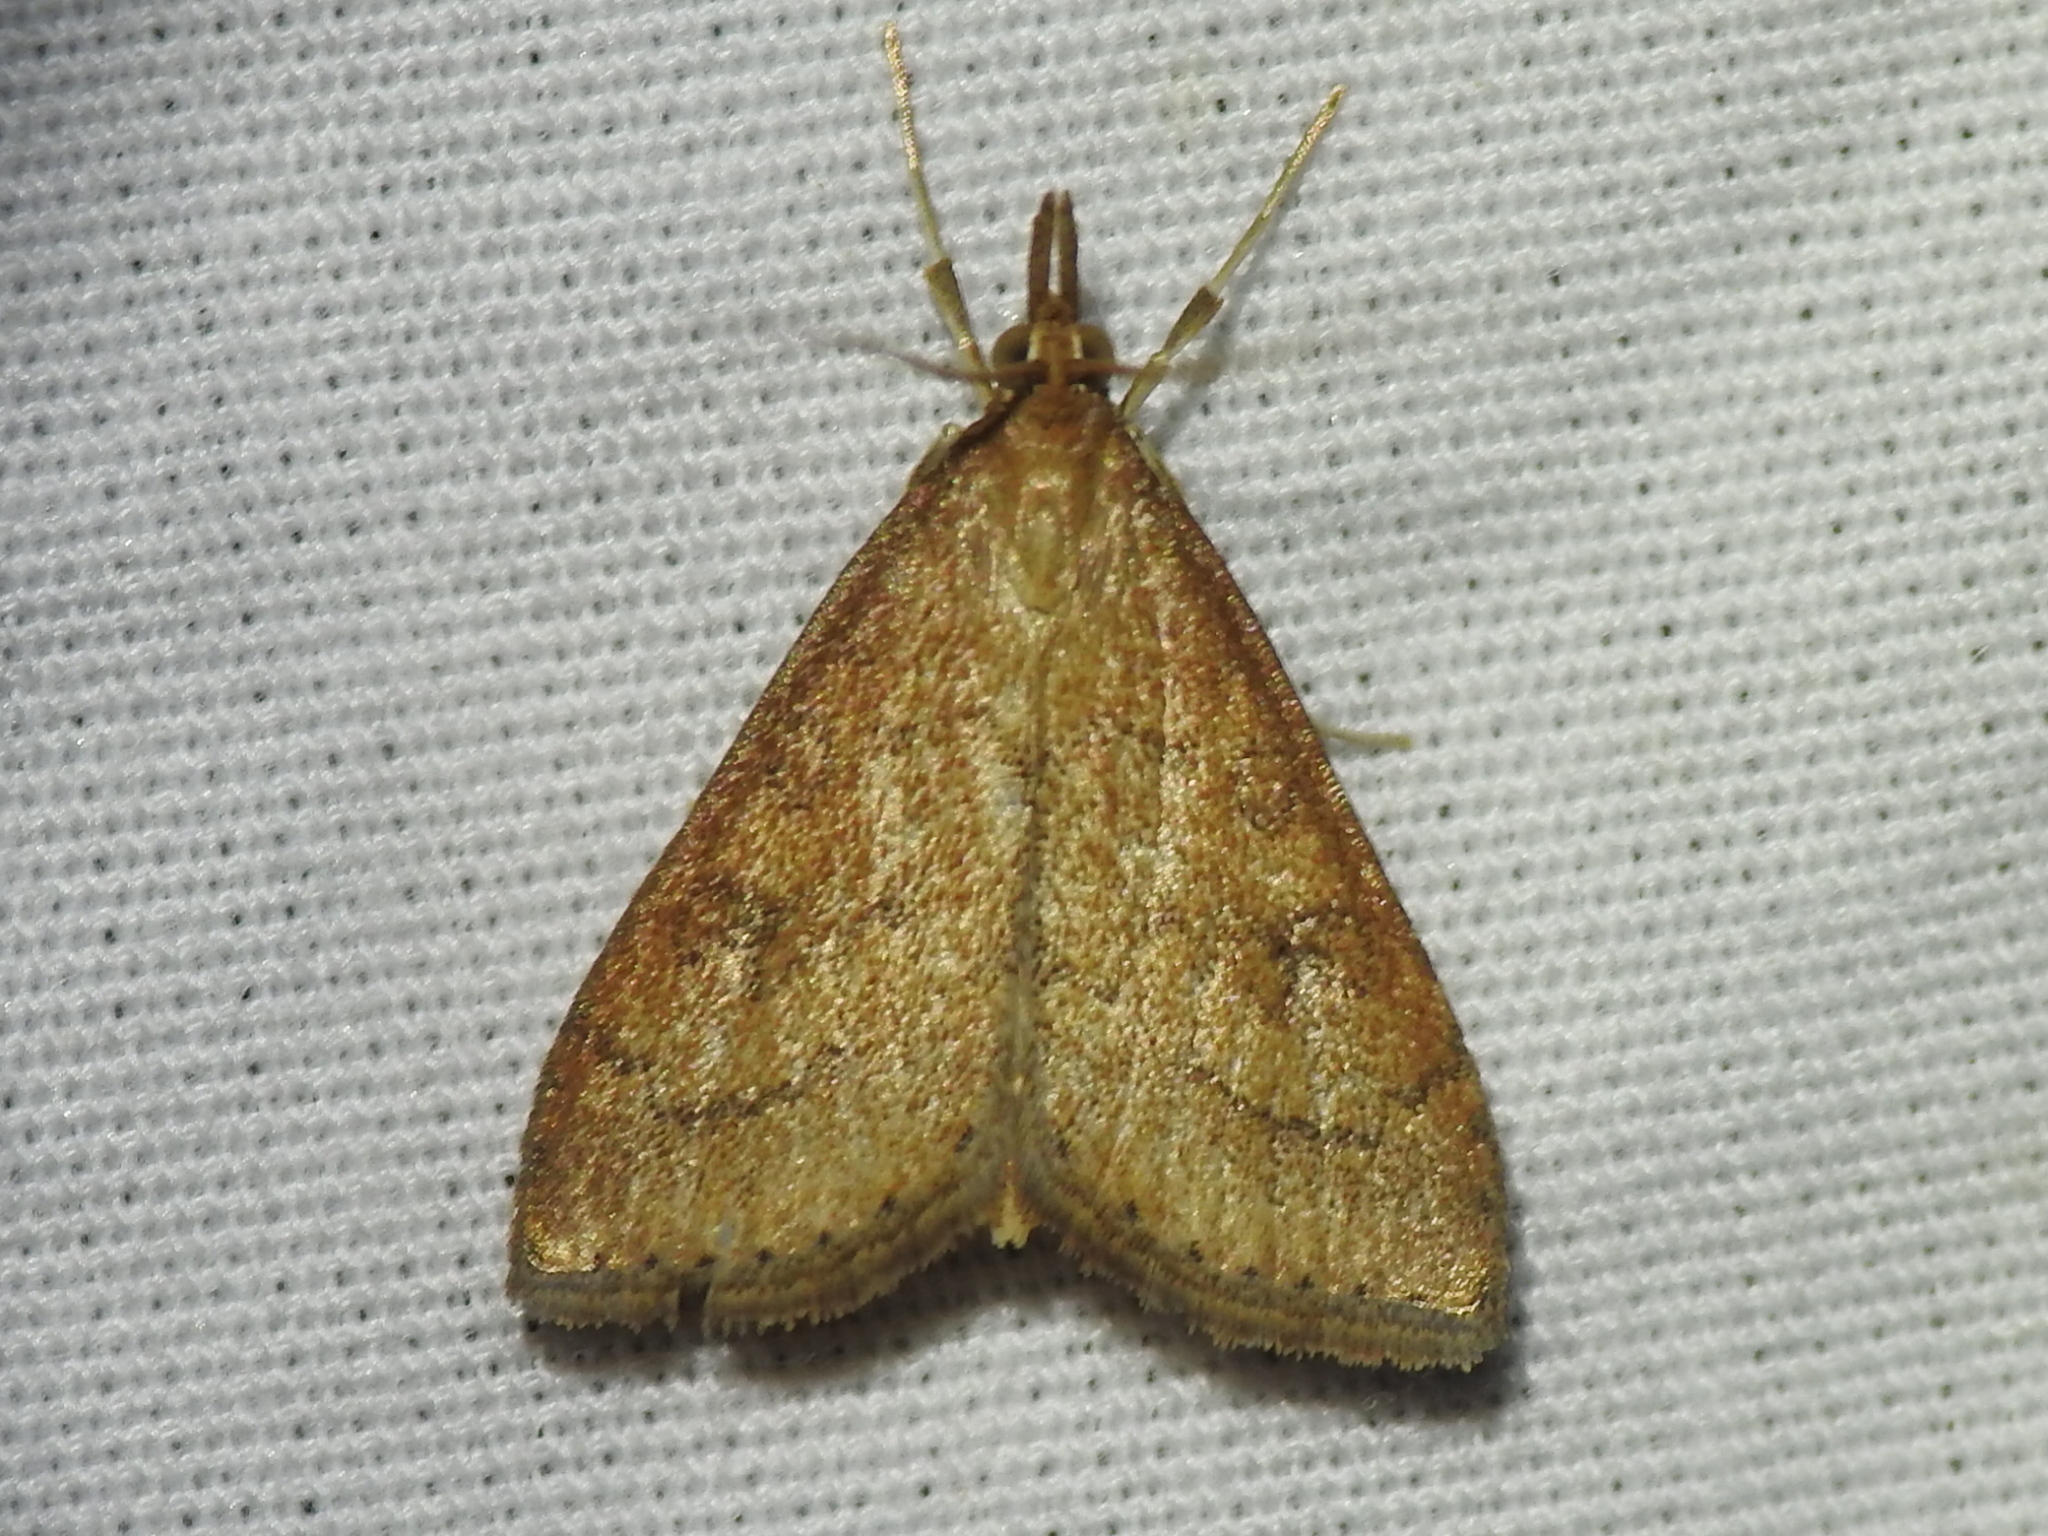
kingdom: Animalia
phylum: Arthropoda
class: Insecta
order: Lepidoptera
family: Crambidae
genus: Udea
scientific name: Udea rubigalis
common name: Celery leaftier moth
